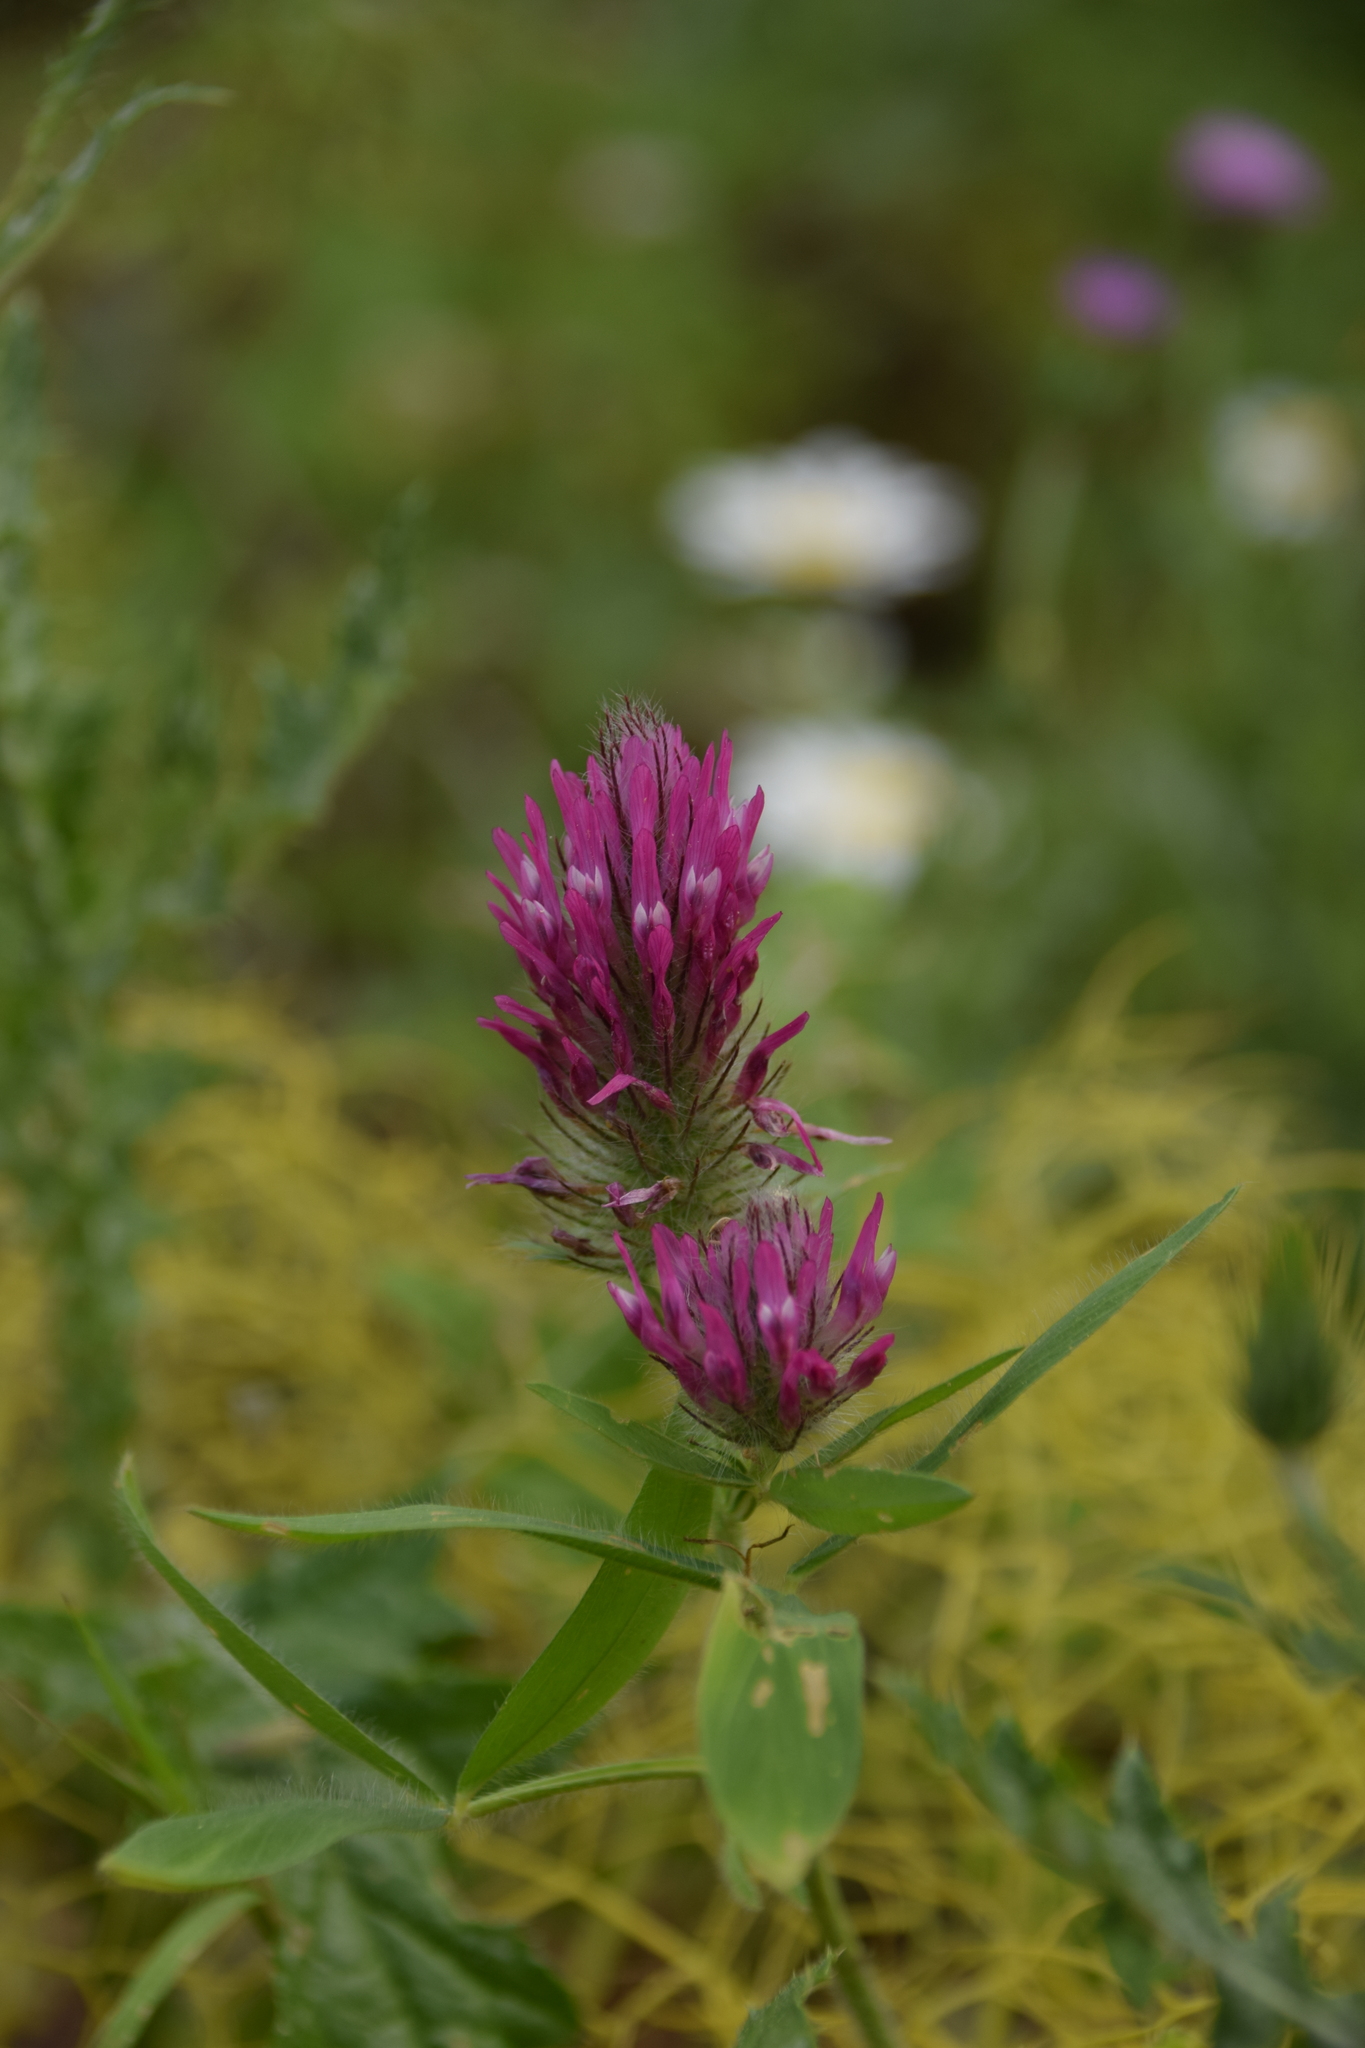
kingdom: Plantae
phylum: Tracheophyta
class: Magnoliopsida
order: Fabales
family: Fabaceae
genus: Trifolium
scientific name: Trifolium purpureum
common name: Purple clover
